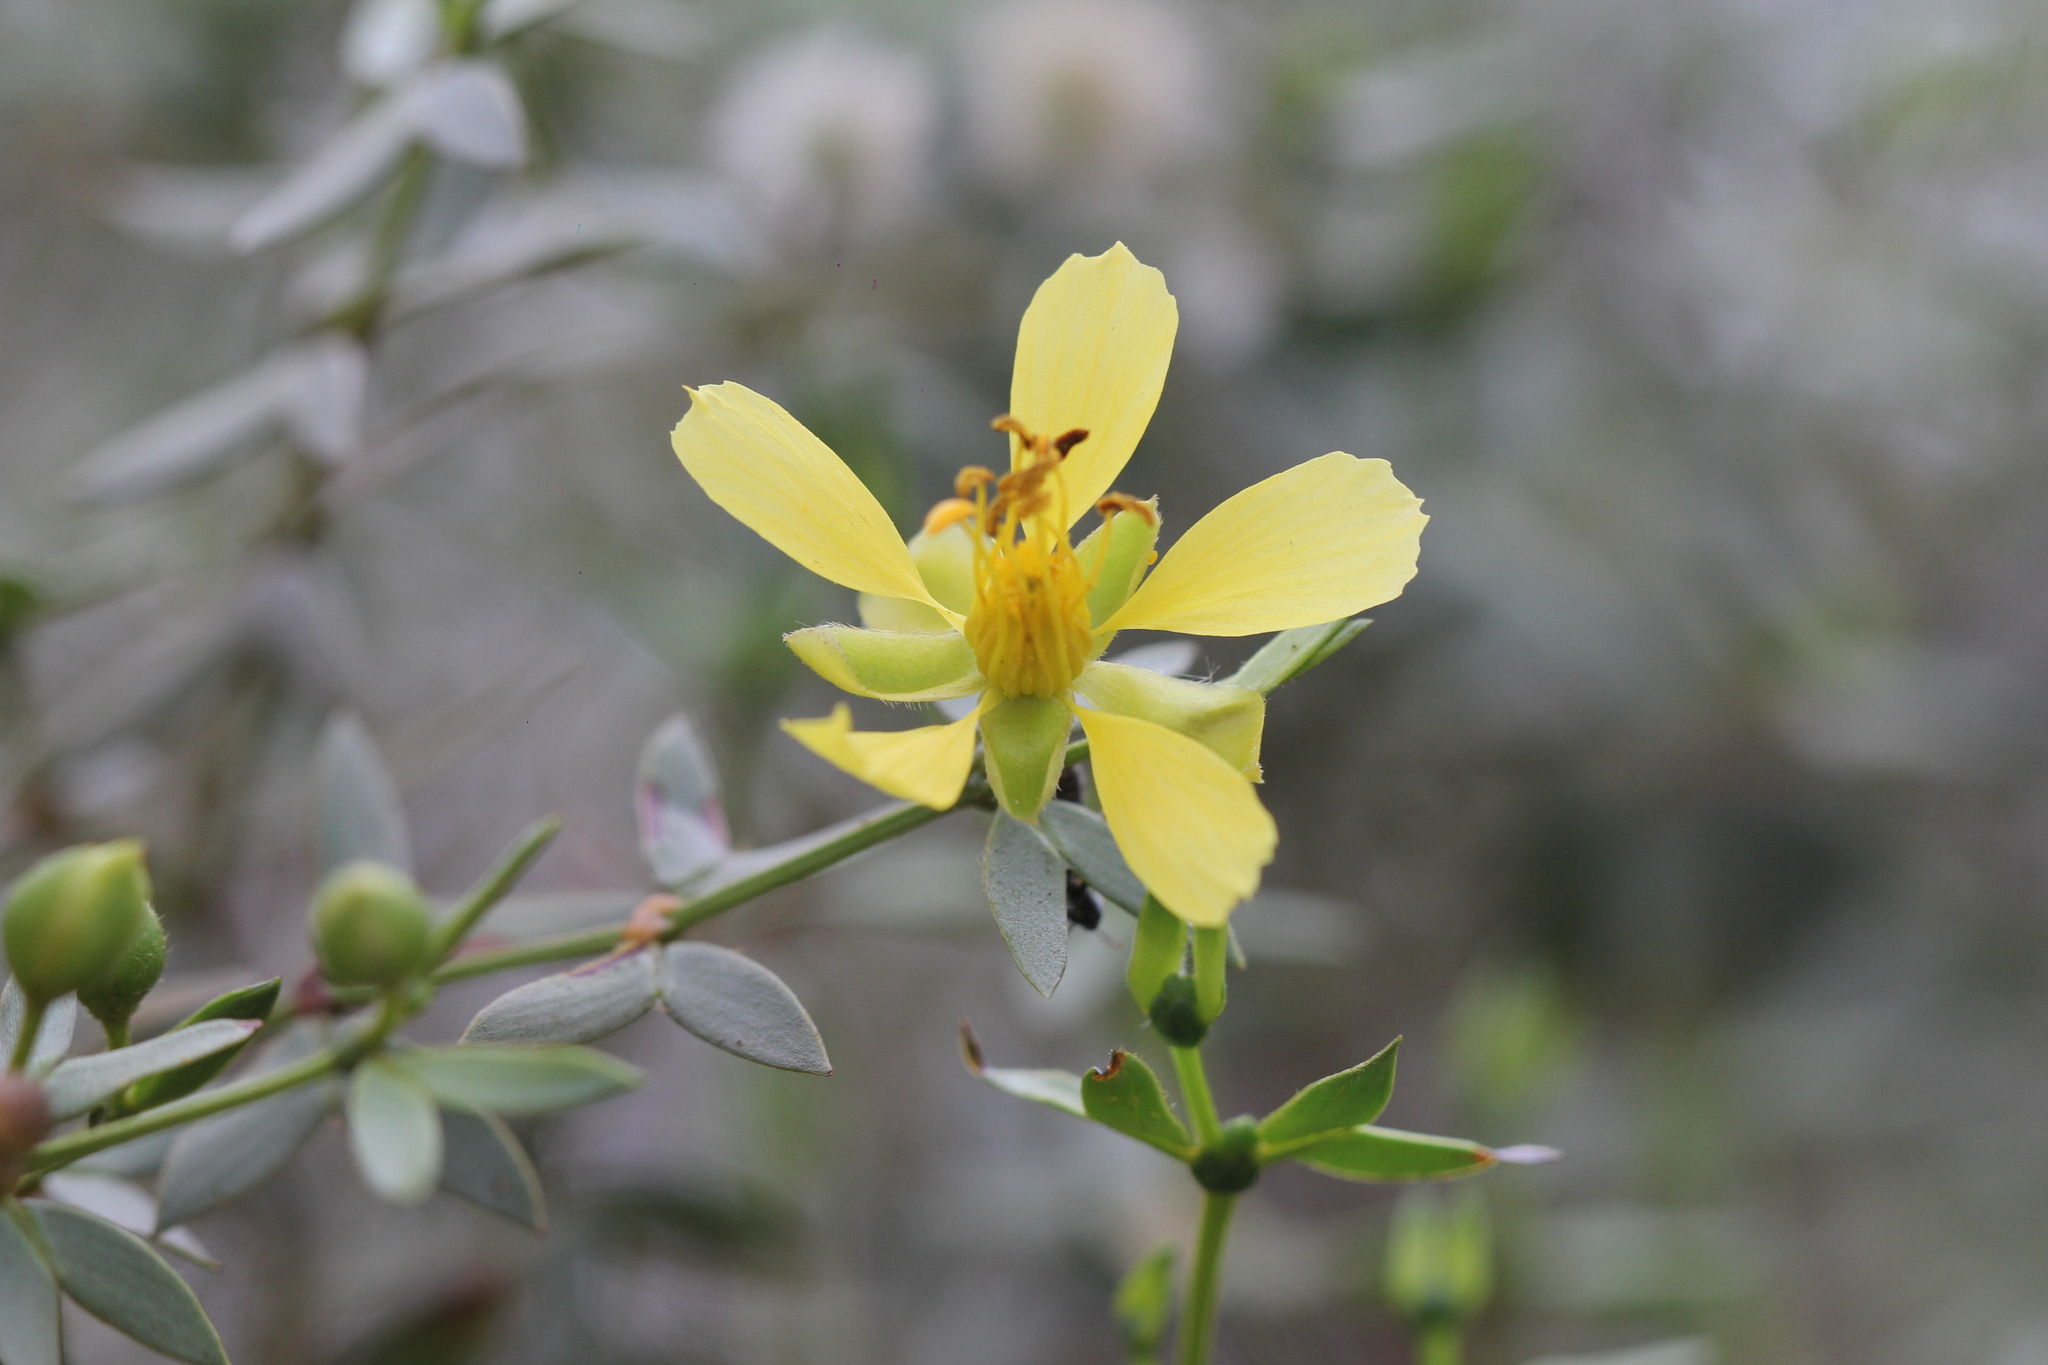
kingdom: Plantae
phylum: Tracheophyta
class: Magnoliopsida
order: Zygophyllales
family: Zygophyllaceae
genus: Larrea
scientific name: Larrea divaricata
